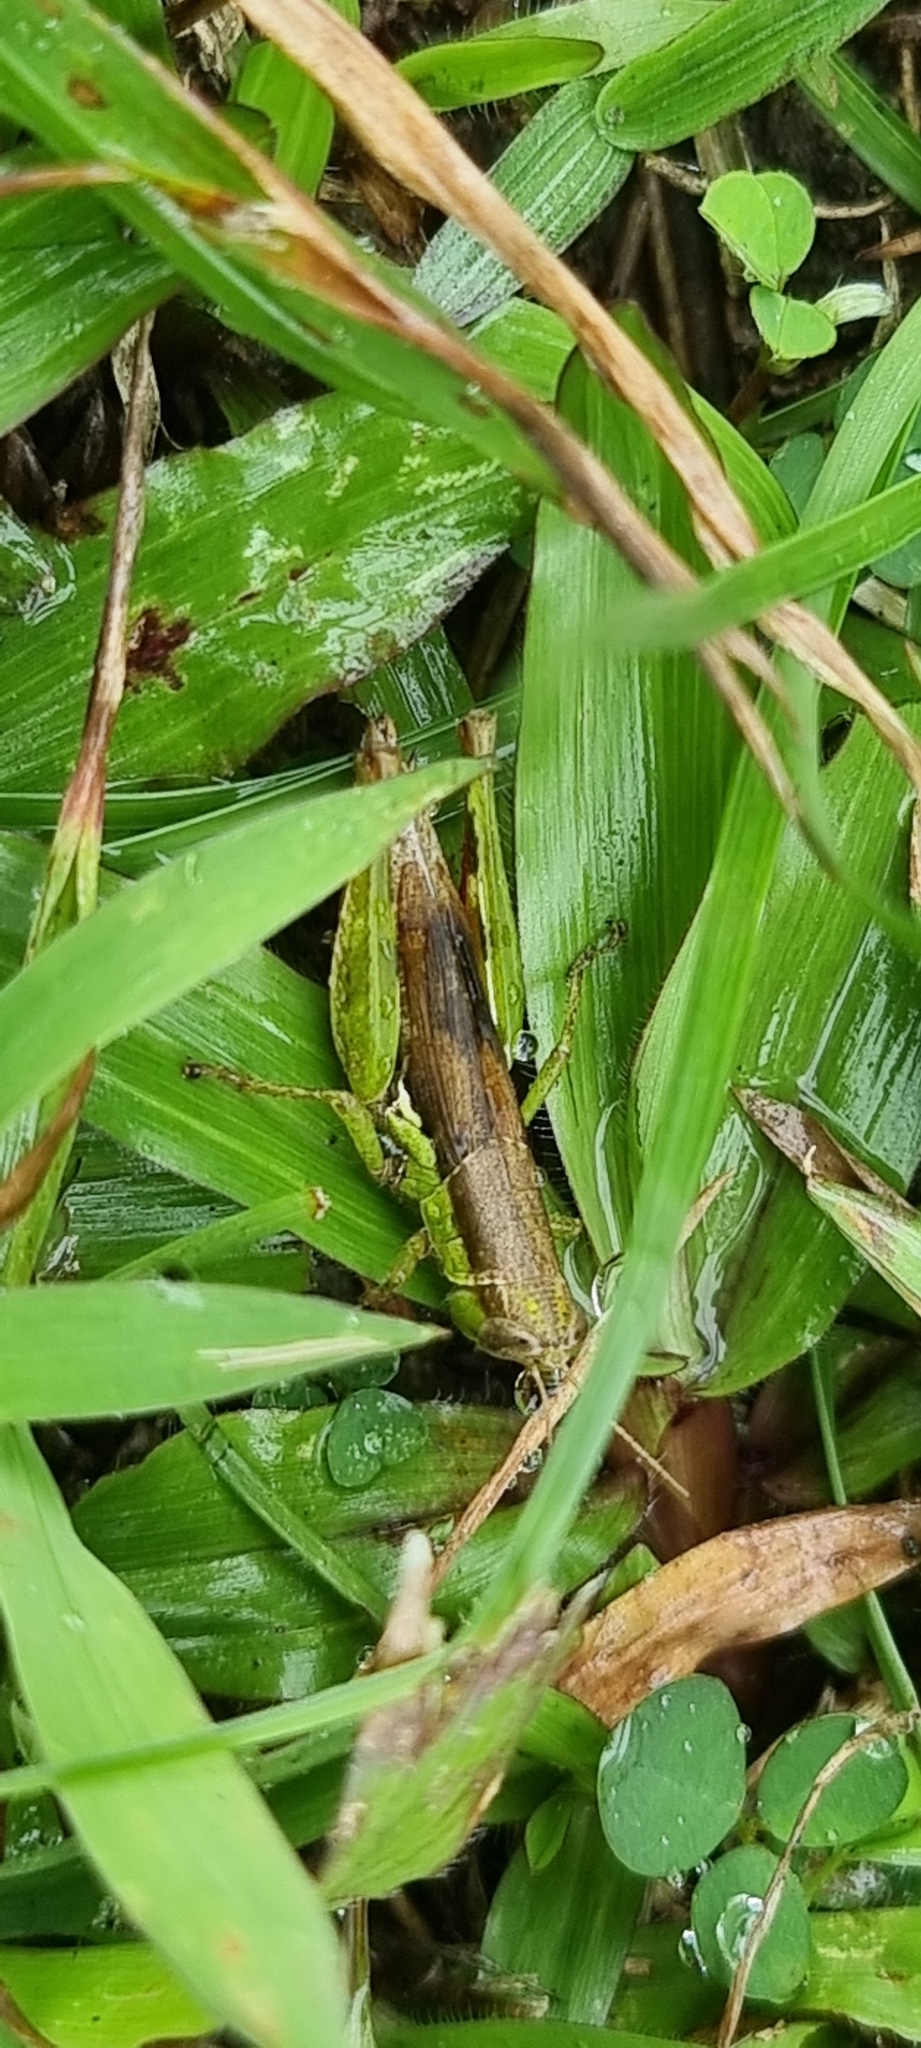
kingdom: Animalia
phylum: Arthropoda
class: Insecta
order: Orthoptera
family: Acrididae
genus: Pseudoxya
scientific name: Pseudoxya diminuta
